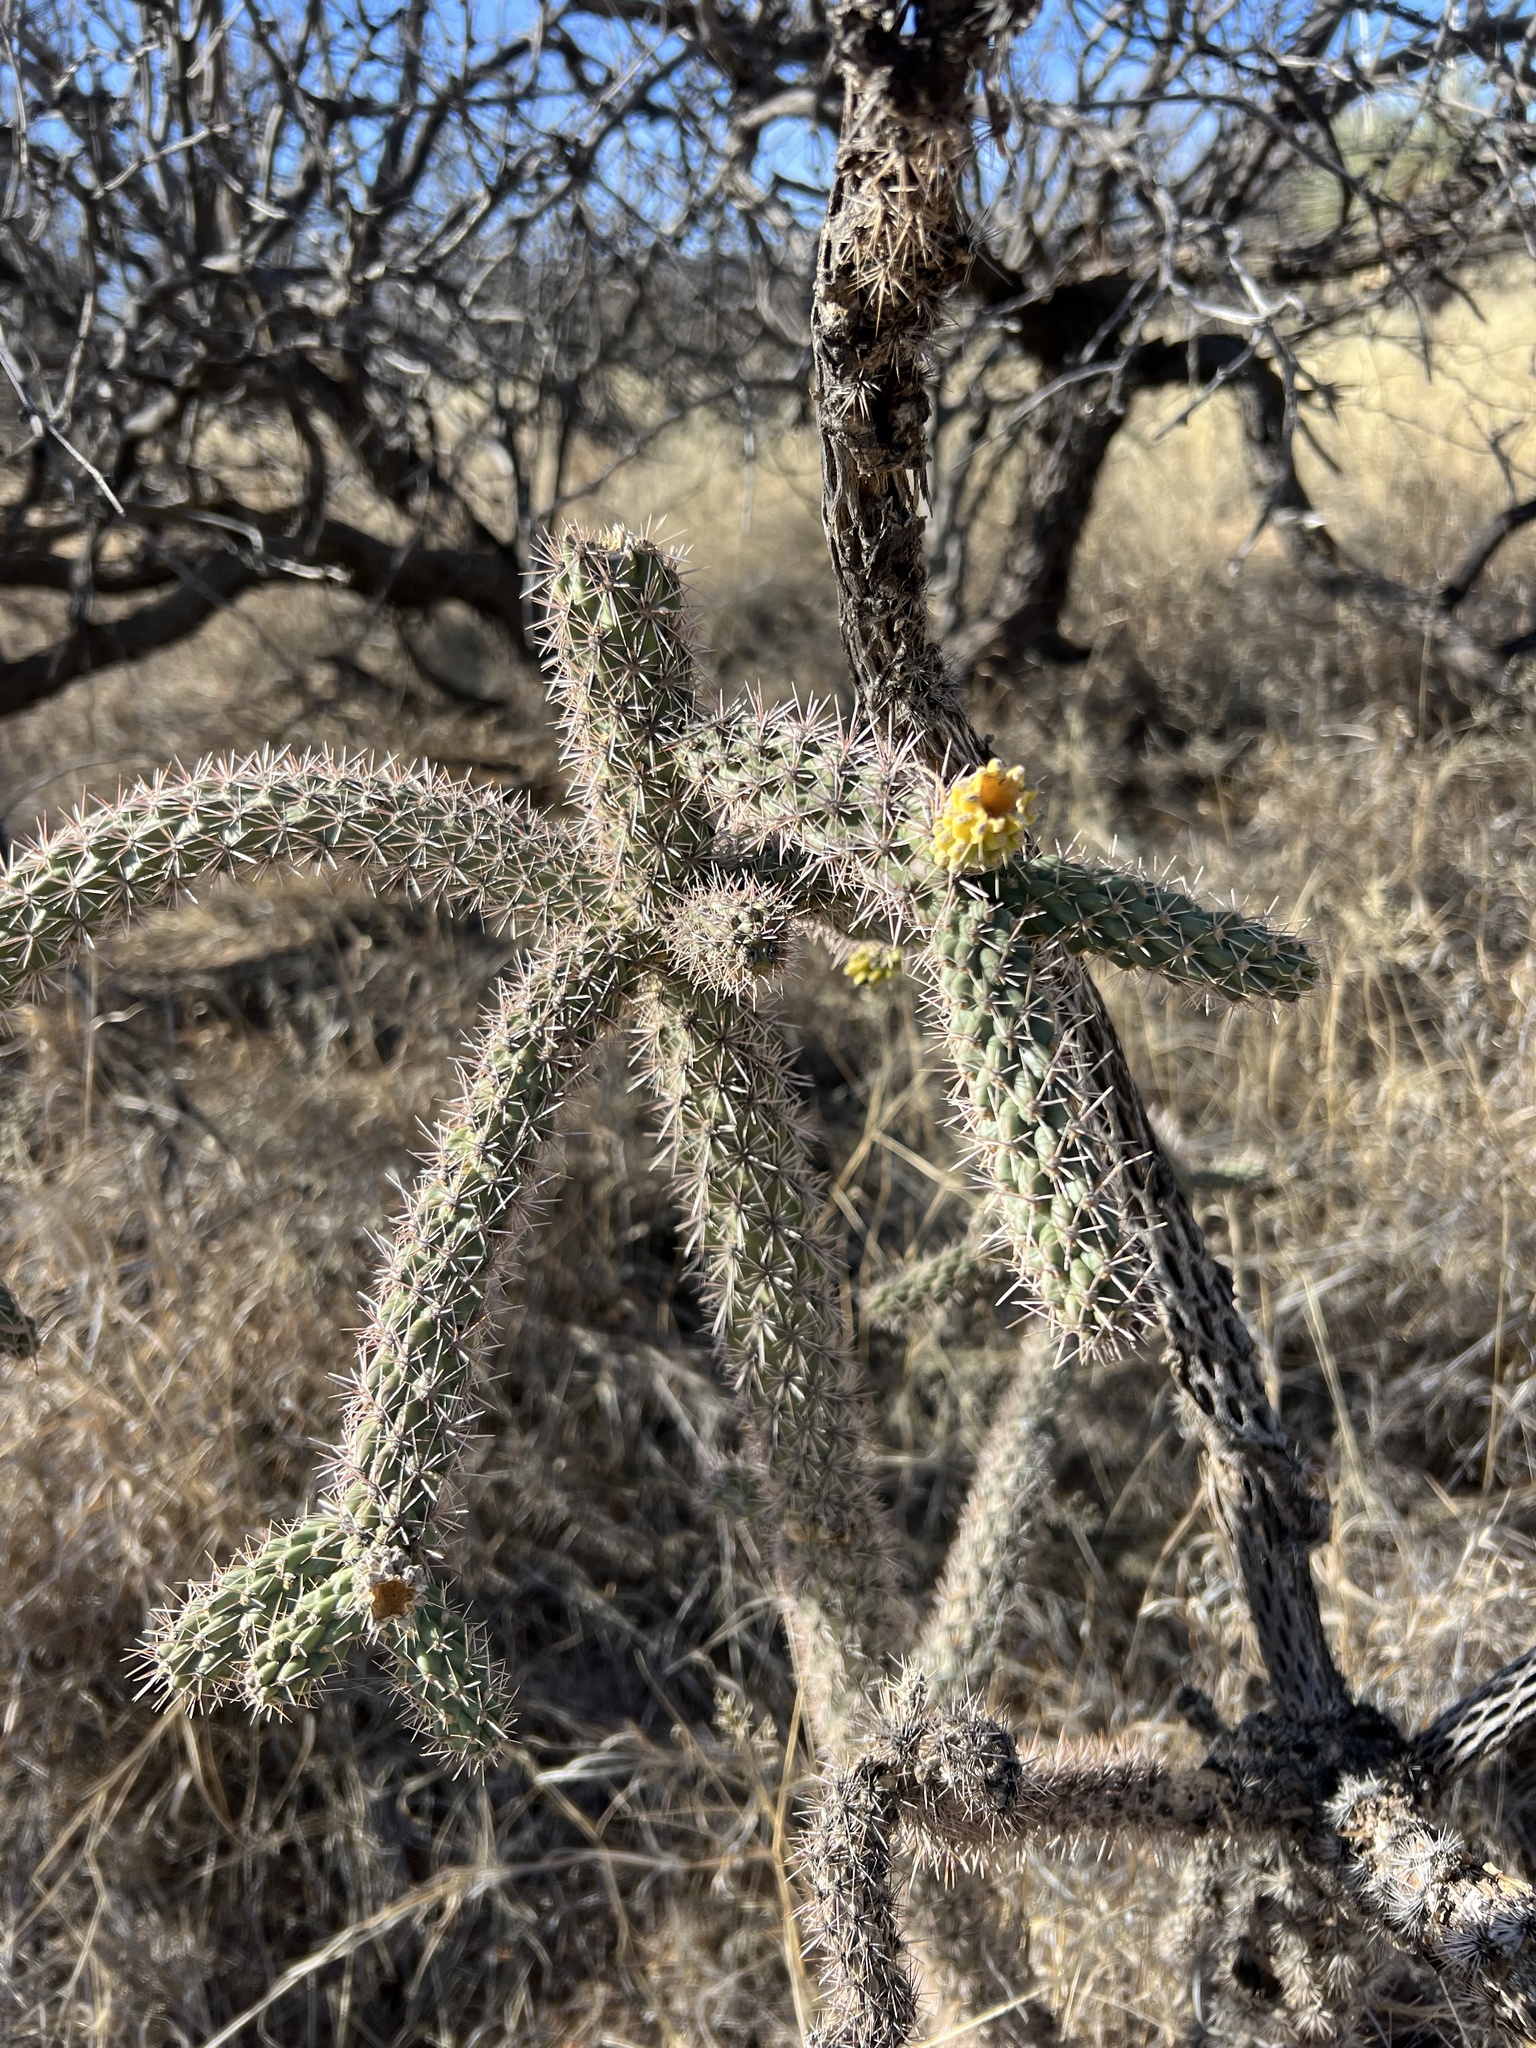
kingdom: Plantae
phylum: Tracheophyta
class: Magnoliopsida
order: Caryophyllales
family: Cactaceae
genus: Cylindropuntia
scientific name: Cylindropuntia imbricata
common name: Candelabrum cactus
